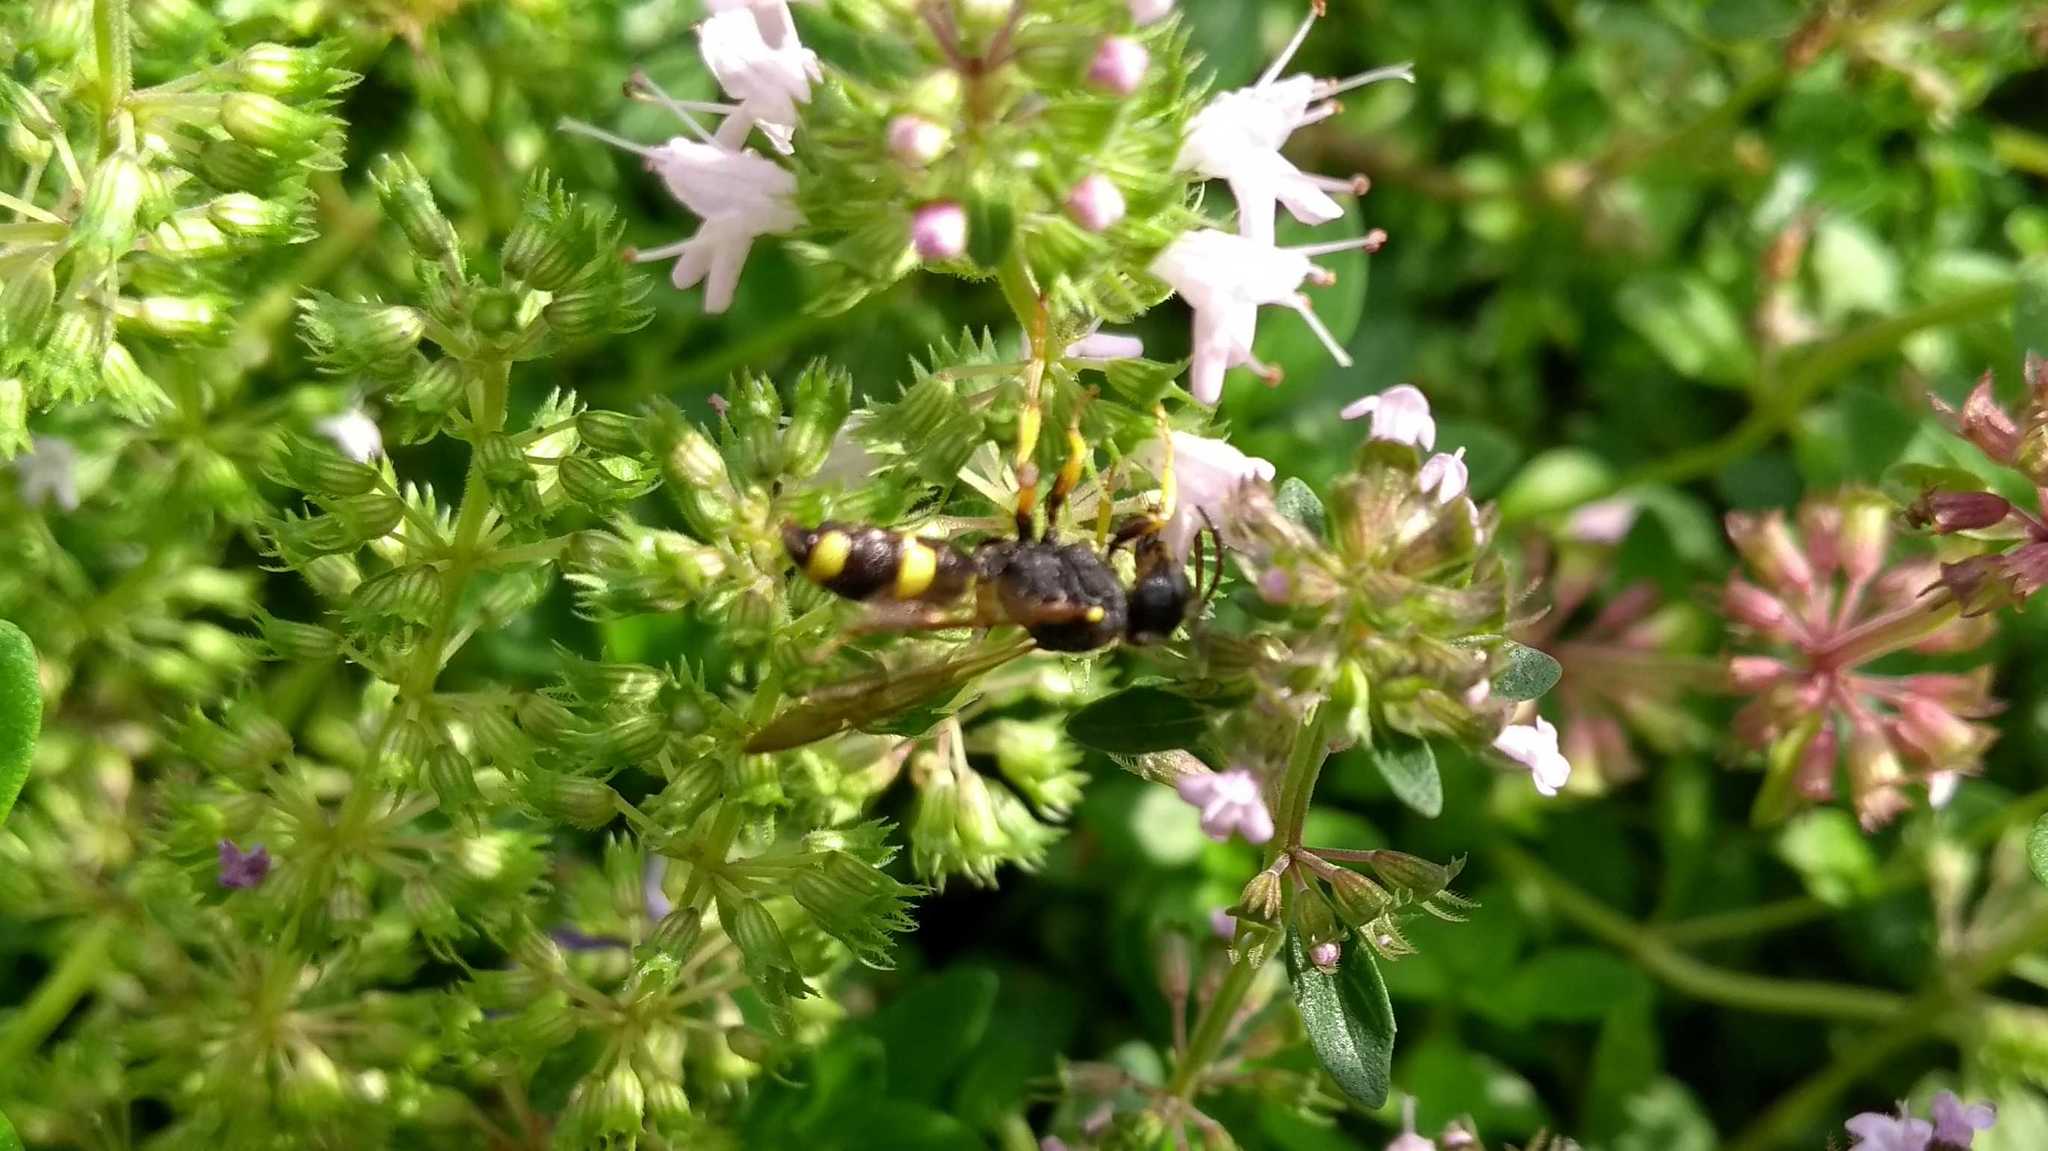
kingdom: Animalia
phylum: Arthropoda
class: Insecta
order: Hymenoptera
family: Crabronidae
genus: Cerceris
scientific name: Cerceris rybyensis
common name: Ornate tailed digger wasp
